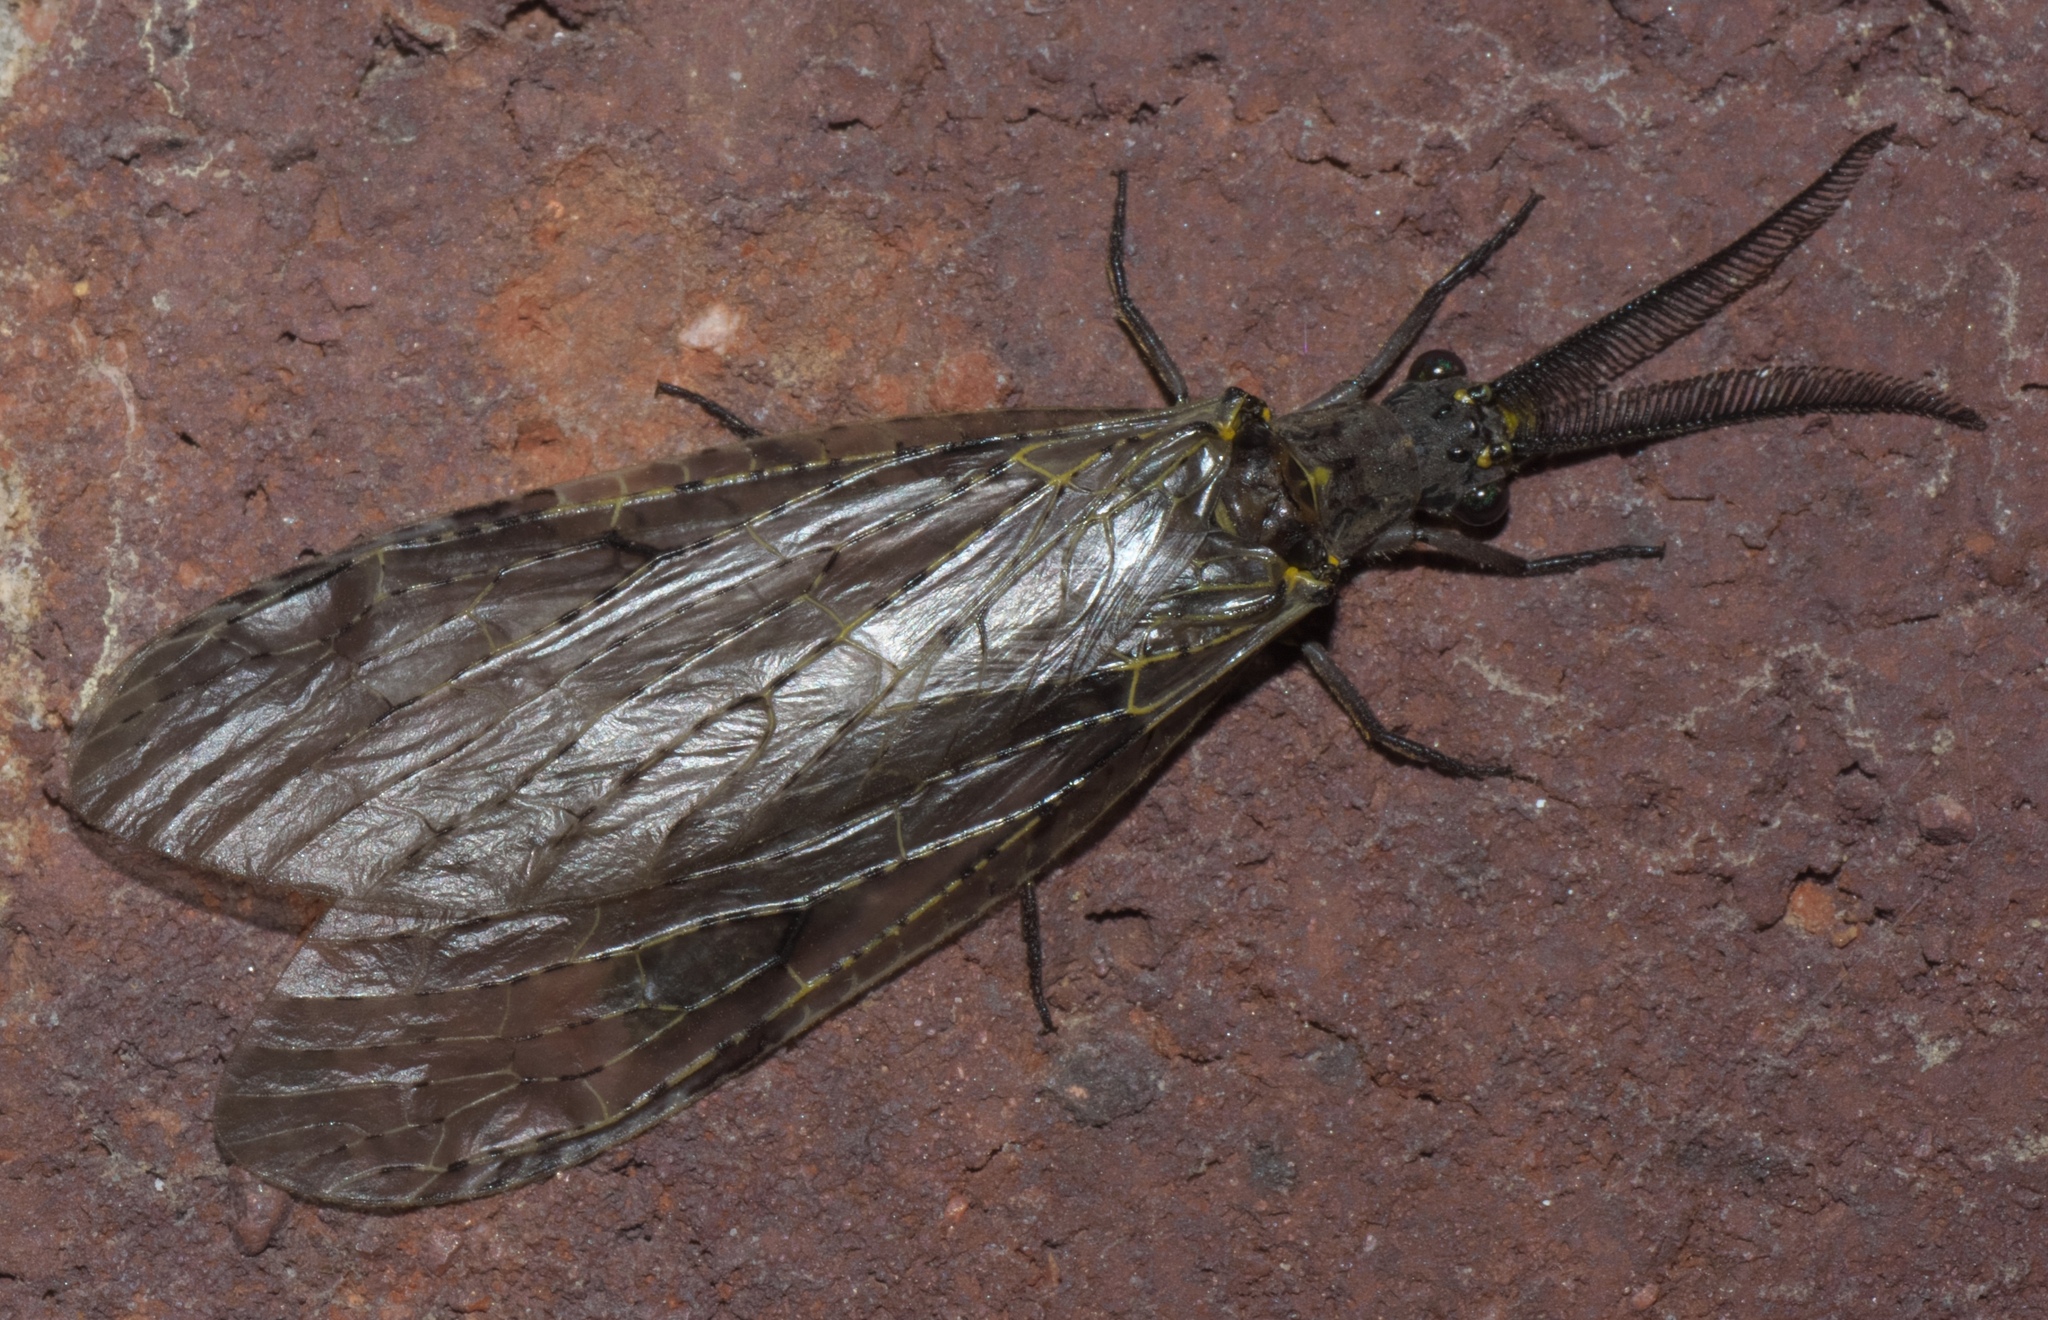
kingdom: Animalia
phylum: Arthropoda
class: Insecta
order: Megaloptera
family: Corydalidae
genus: Chauliodes
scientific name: Chauliodes rastricornis
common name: Spring fishfly
